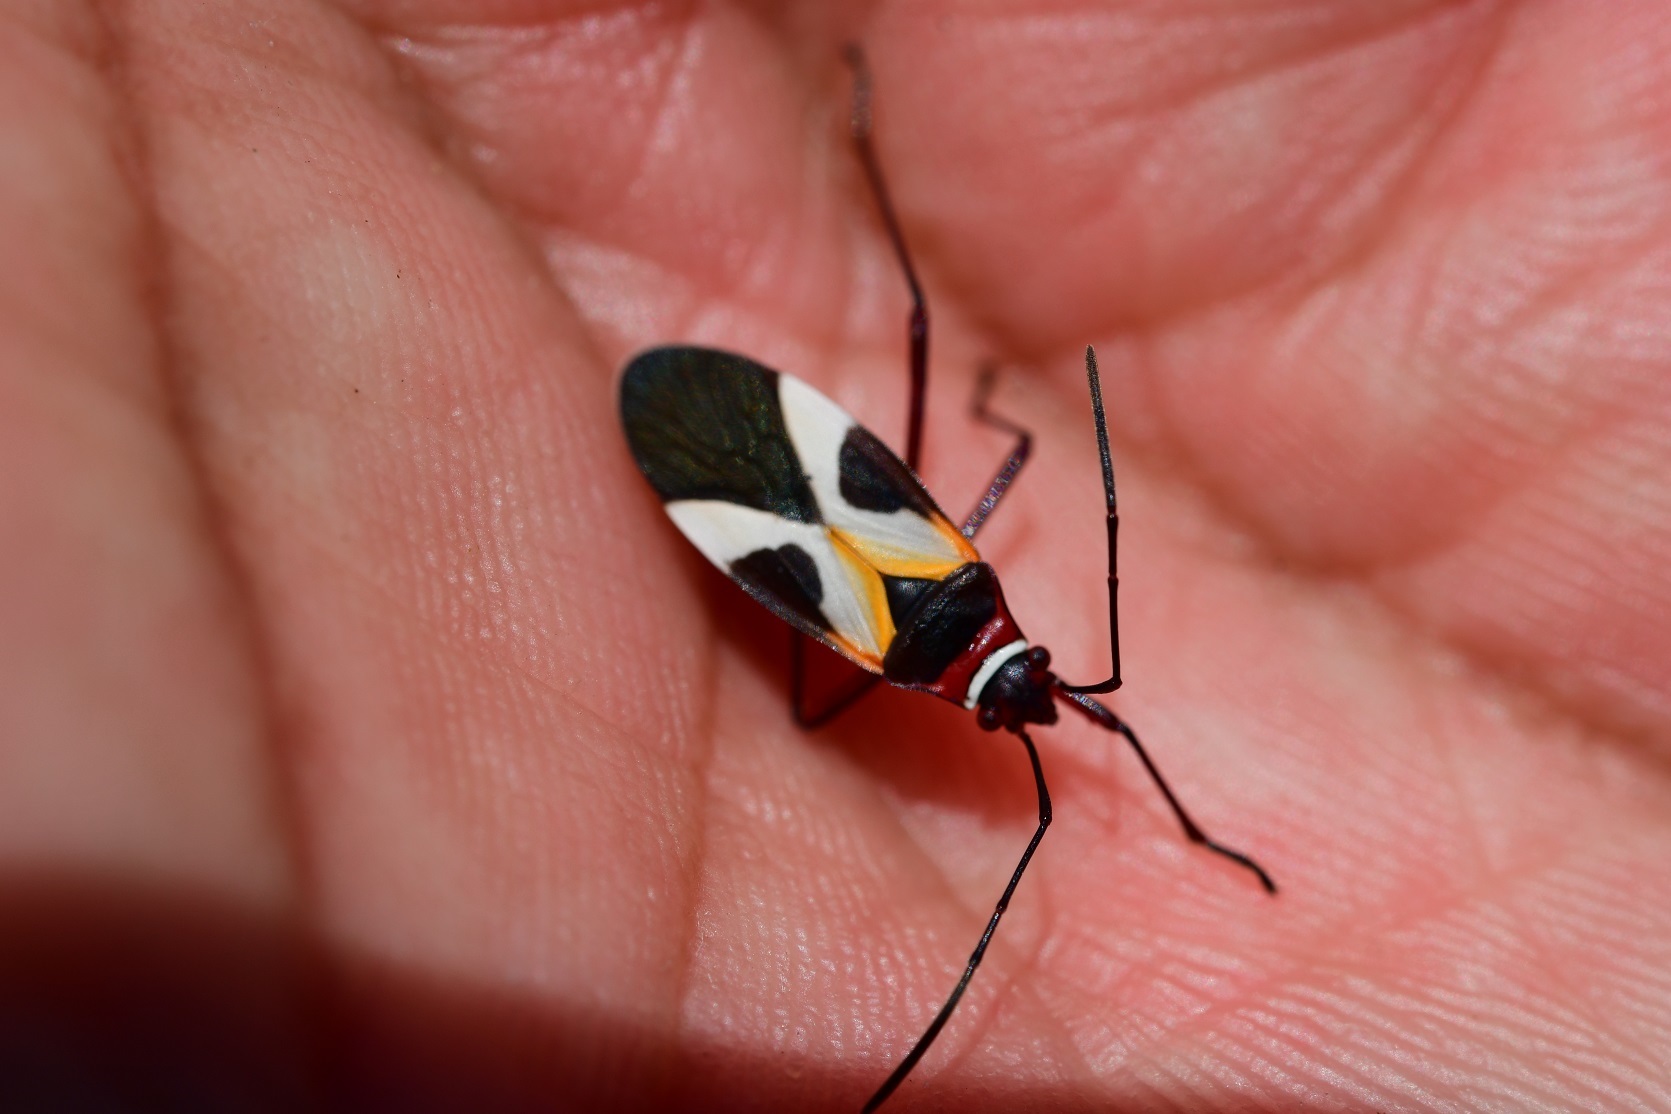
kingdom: Animalia
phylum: Arthropoda
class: Insecta
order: Hemiptera
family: Pyrrhocoridae
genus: Dysdercus
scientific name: Dysdercus concinnus
